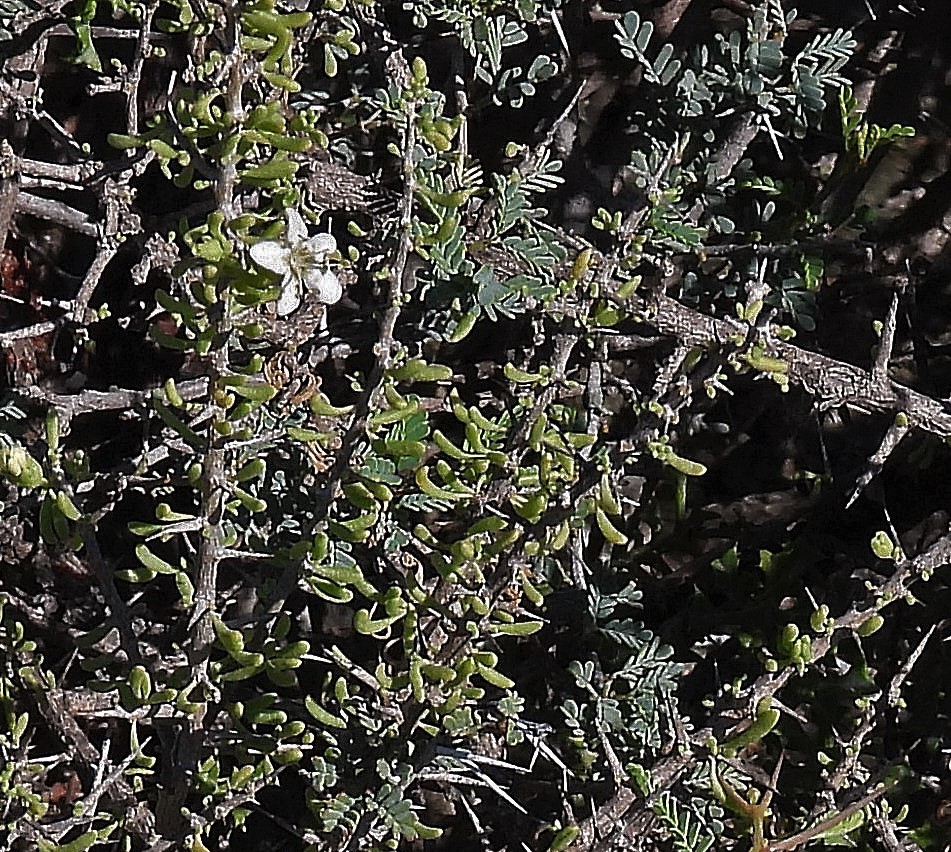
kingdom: Plantae
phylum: Tracheophyta
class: Magnoliopsida
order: Solanales
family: Solanaceae
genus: Lycium
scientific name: Lycium infaustum
